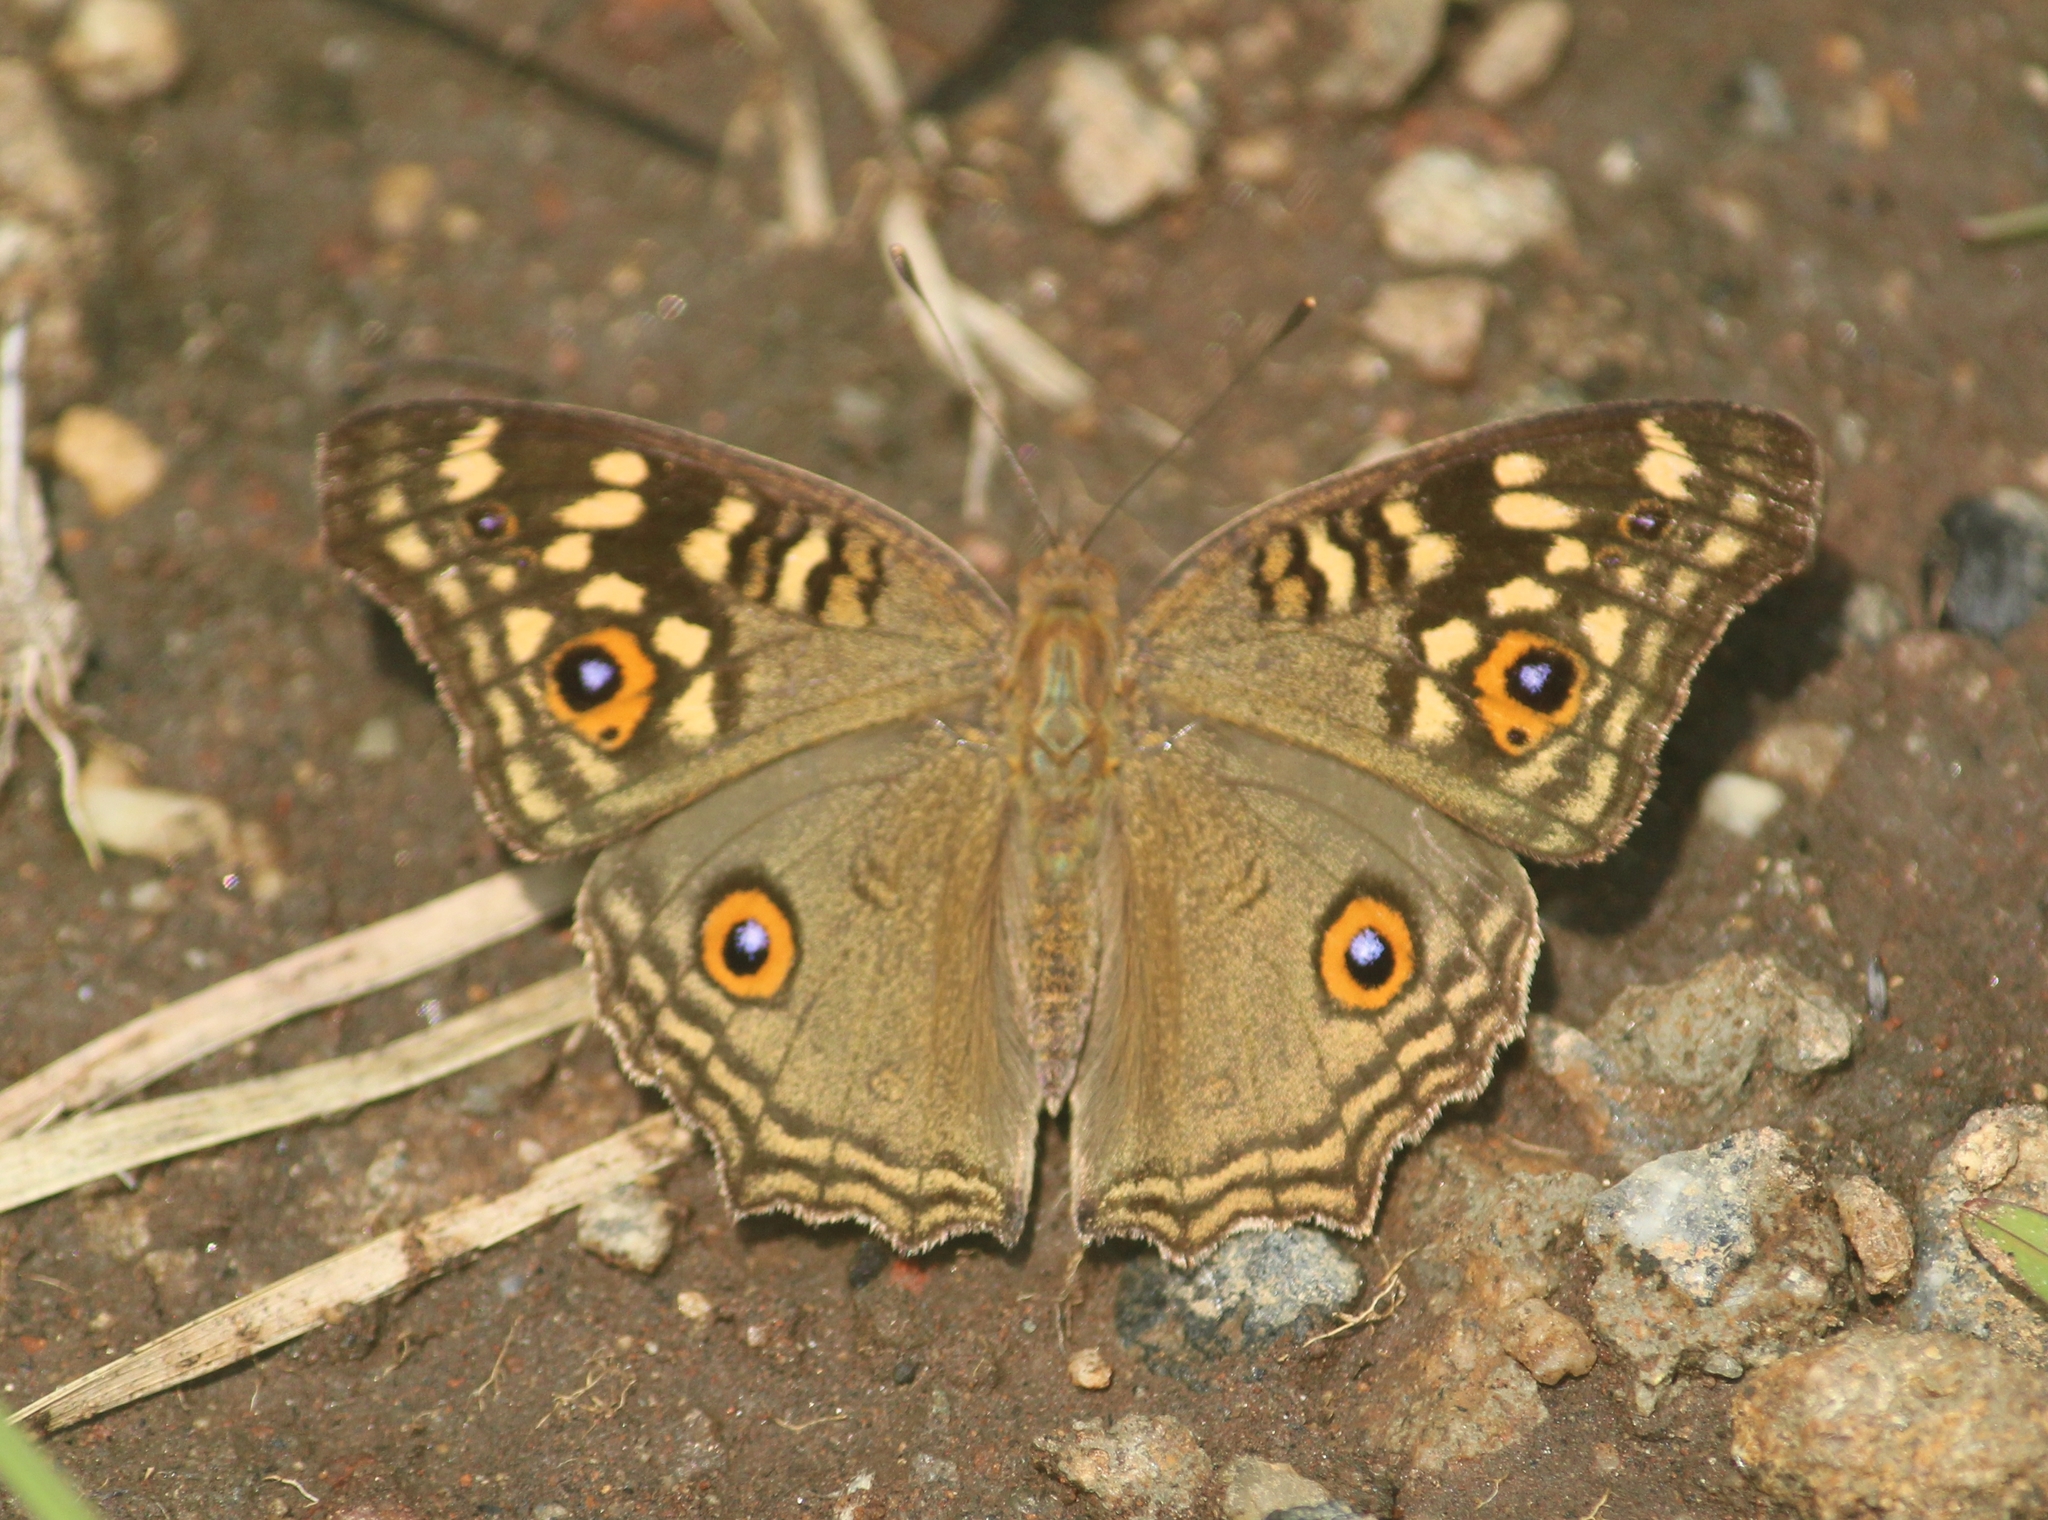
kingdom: Animalia
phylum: Arthropoda
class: Insecta
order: Lepidoptera
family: Nymphalidae
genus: Junonia
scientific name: Junonia lemonias
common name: Lemon pansy
